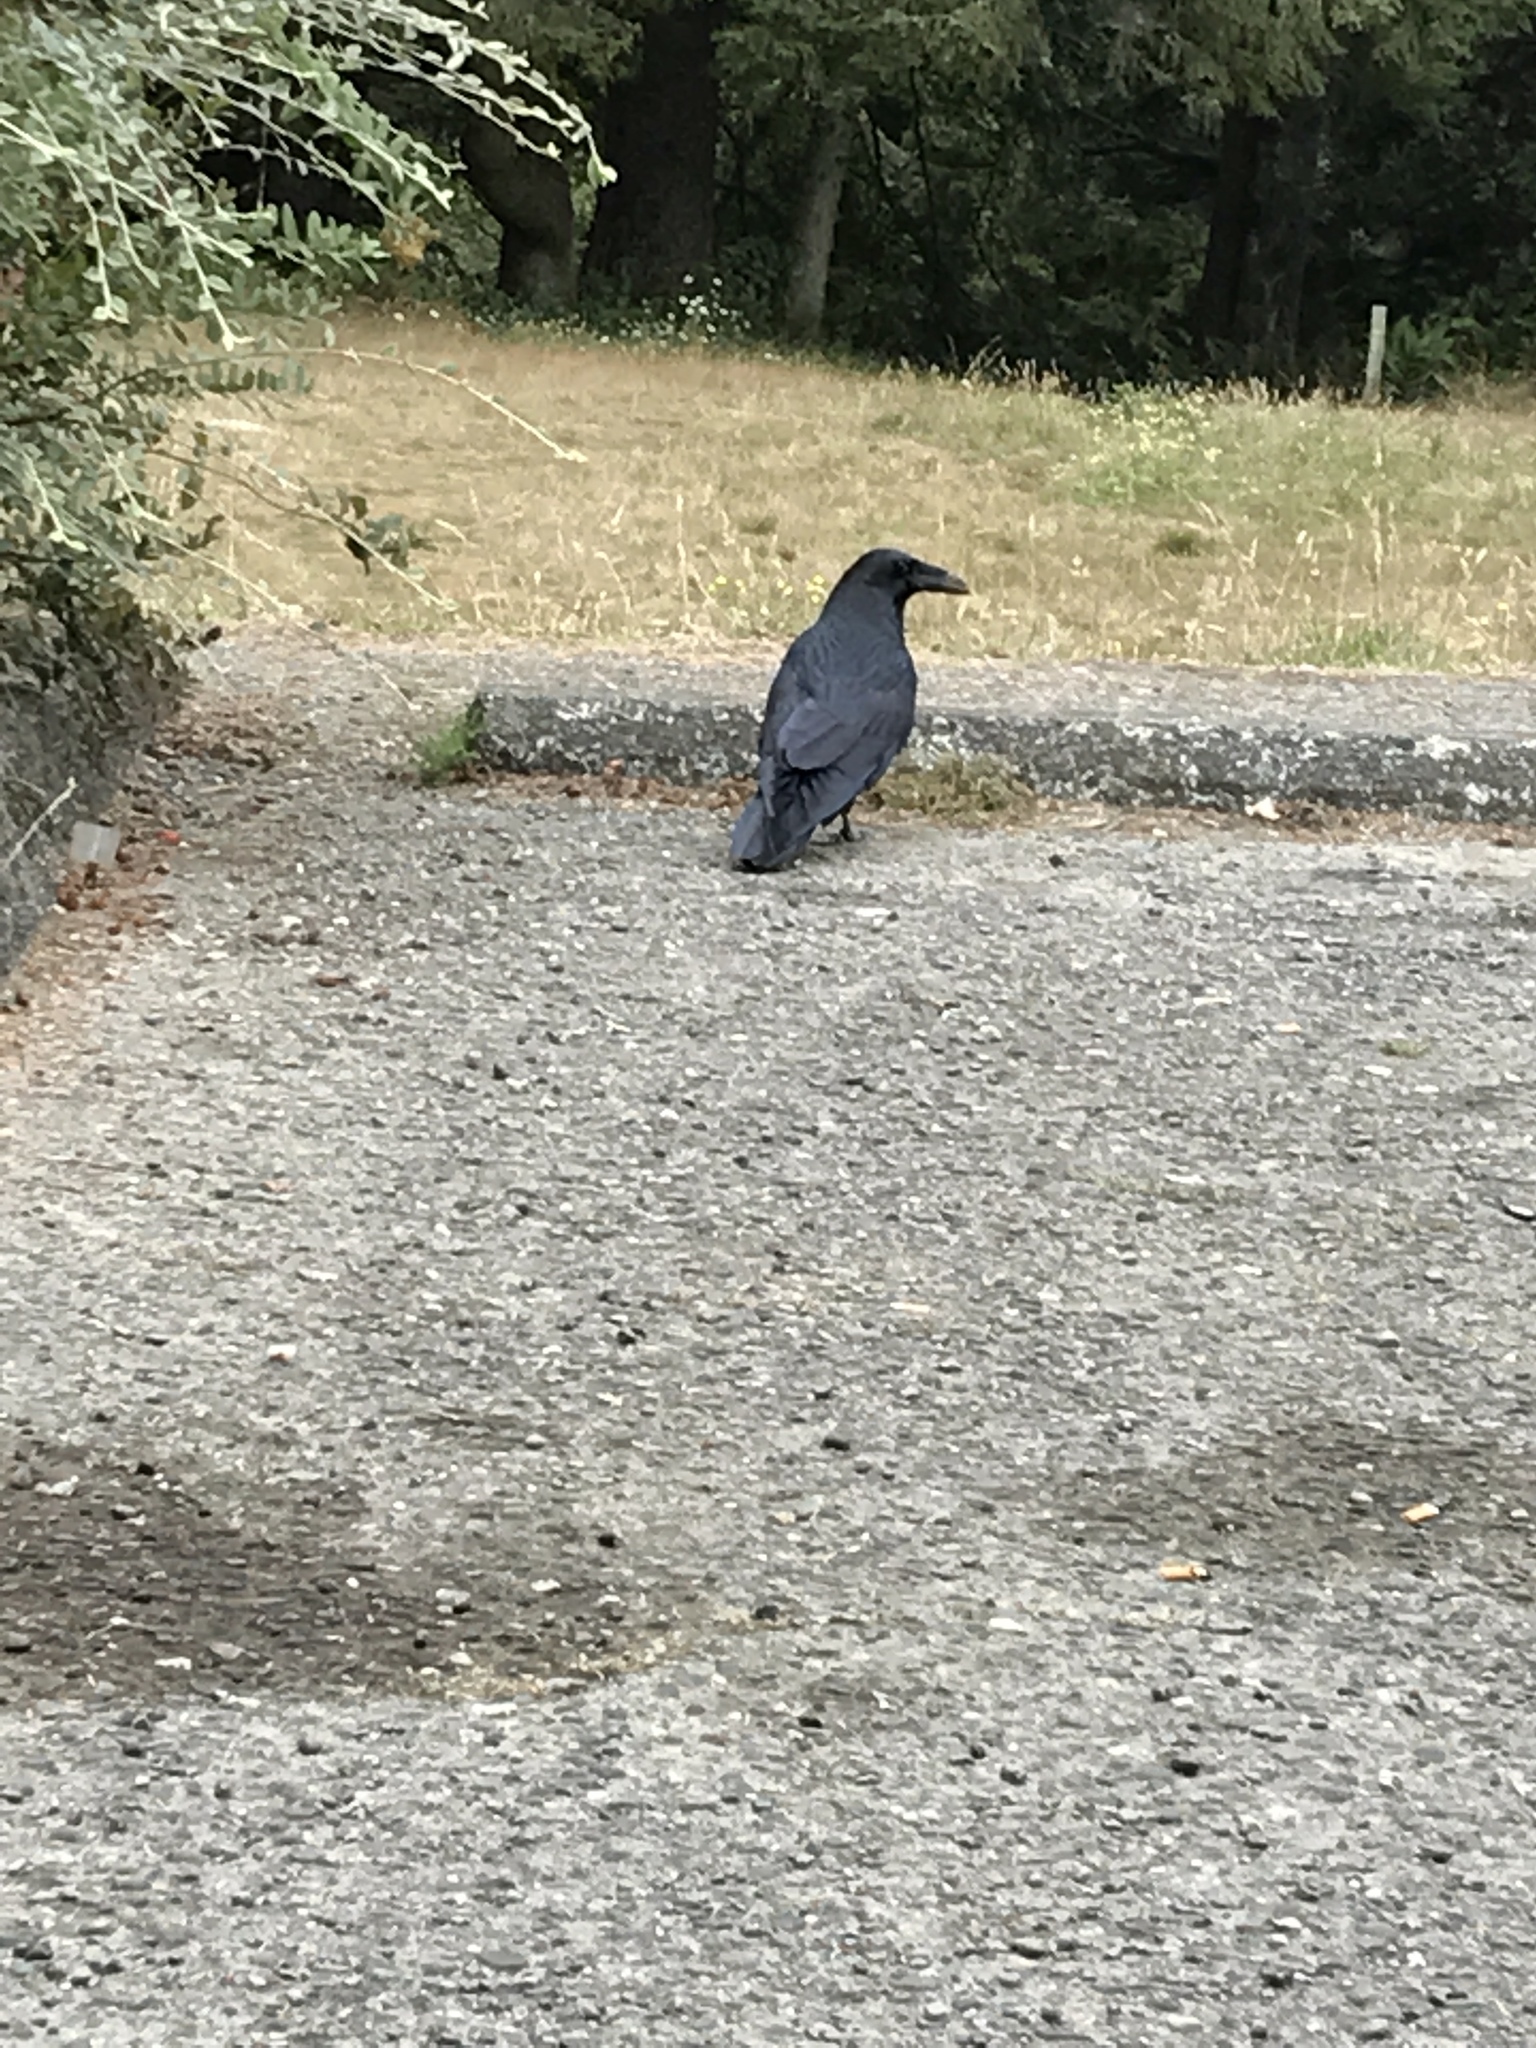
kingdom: Animalia
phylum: Chordata
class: Aves
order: Passeriformes
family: Corvidae
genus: Corvus
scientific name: Corvus corax
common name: Common raven
